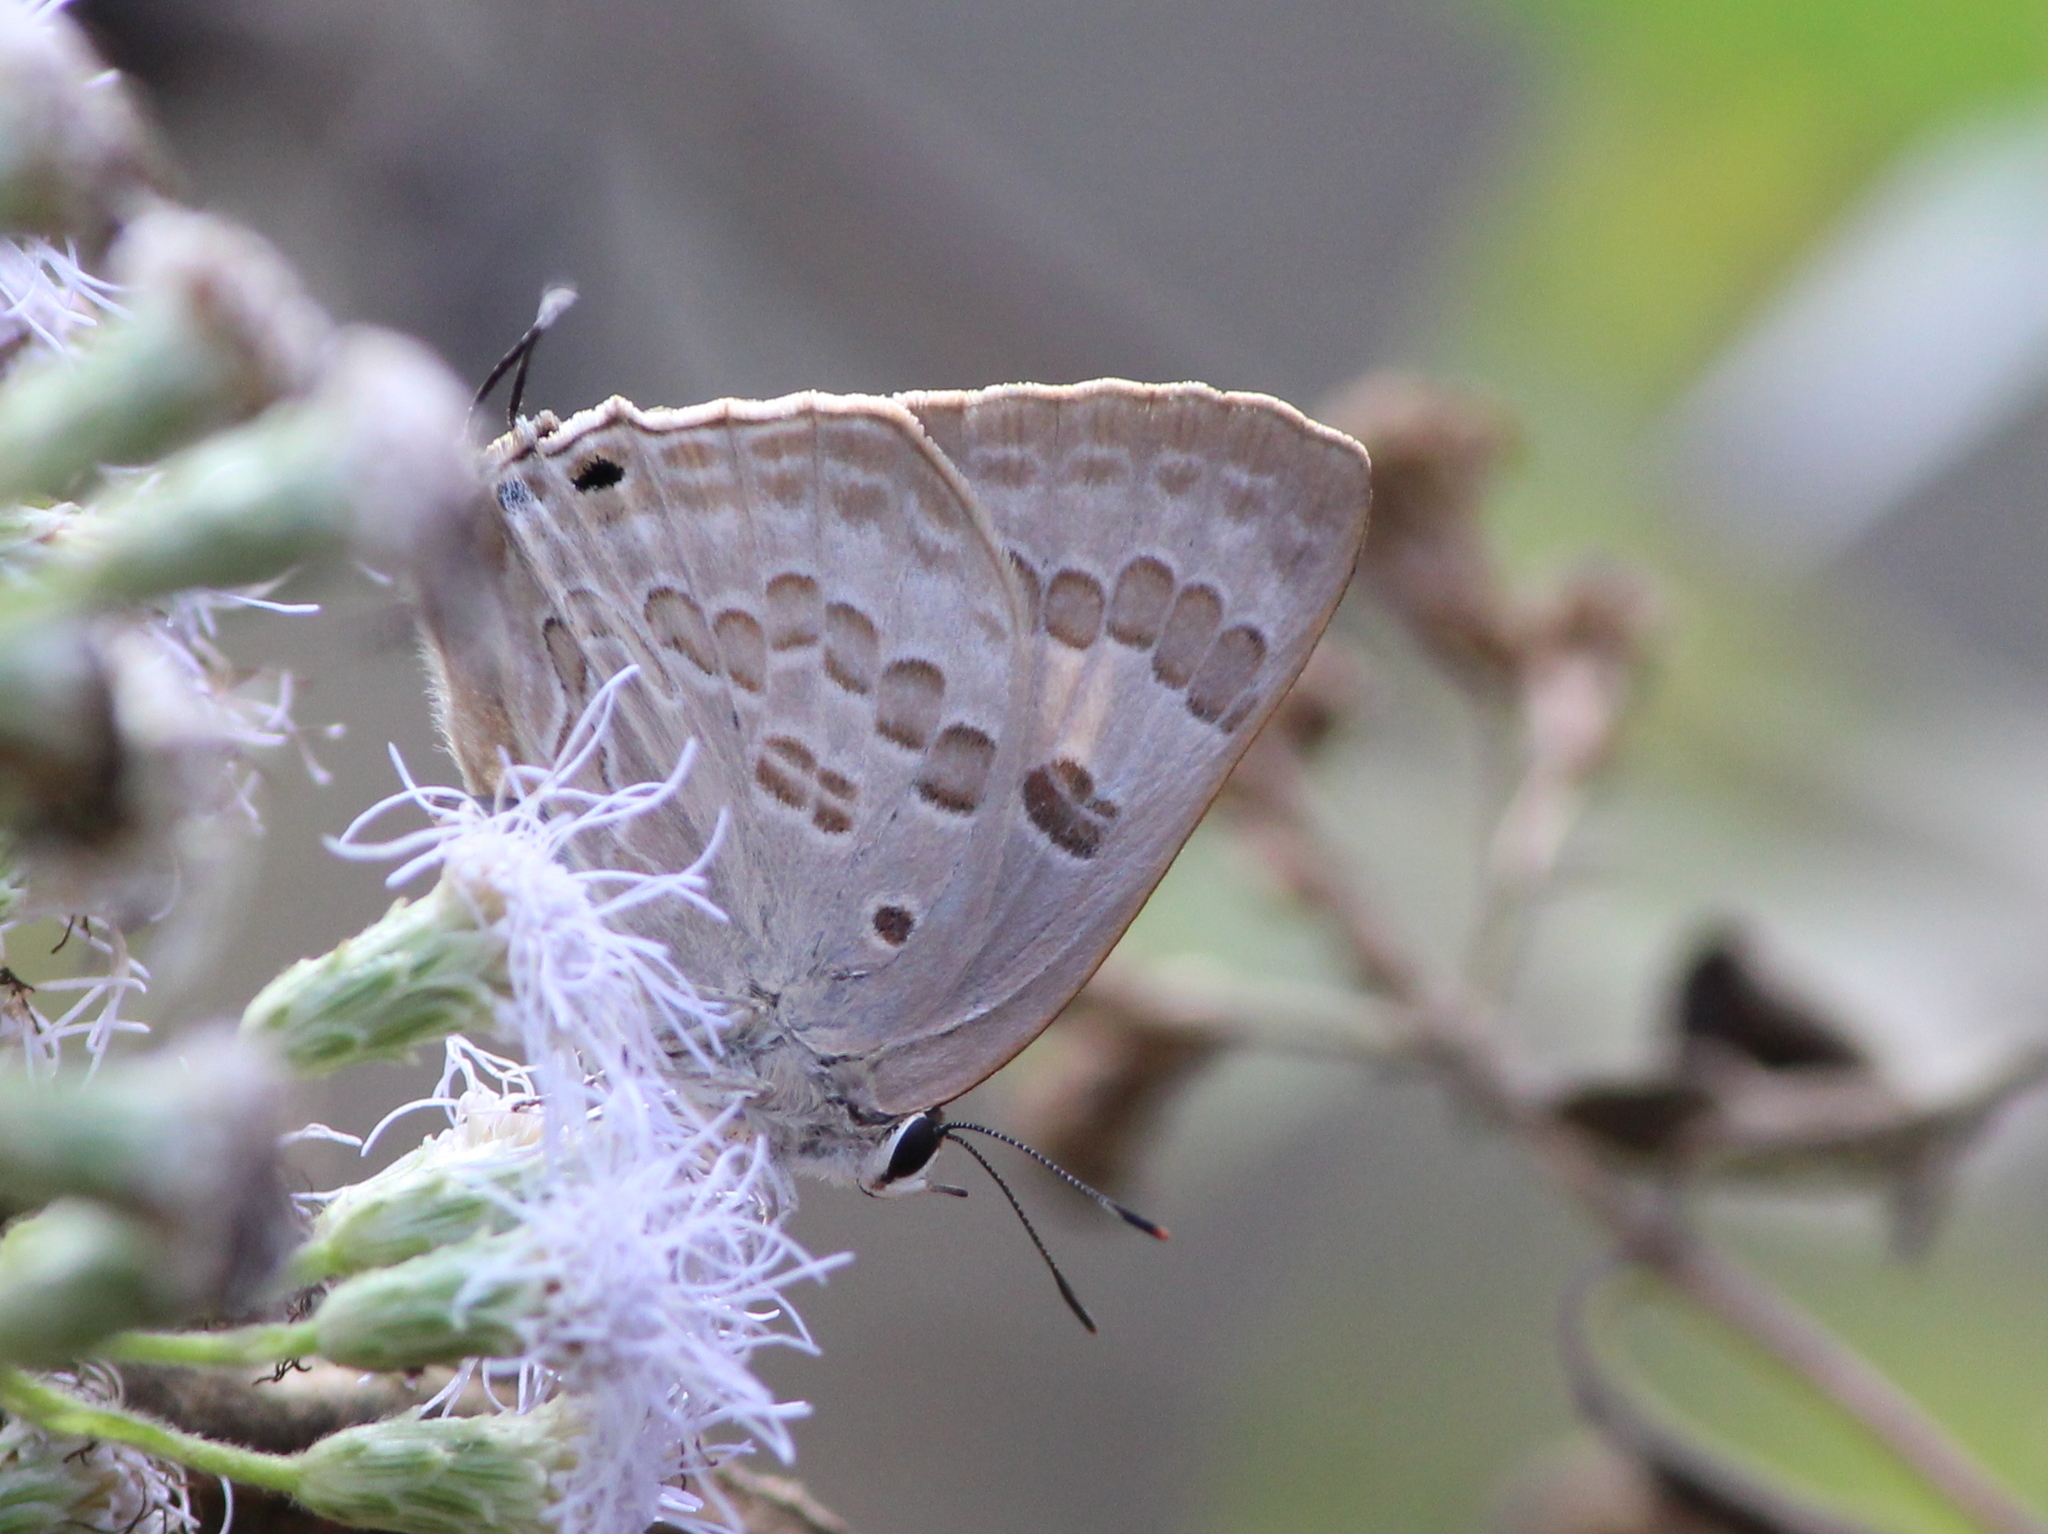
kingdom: Animalia
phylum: Arthropoda
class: Insecta
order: Lepidoptera
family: Lycaenidae
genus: Deudorix
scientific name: Deudorix
